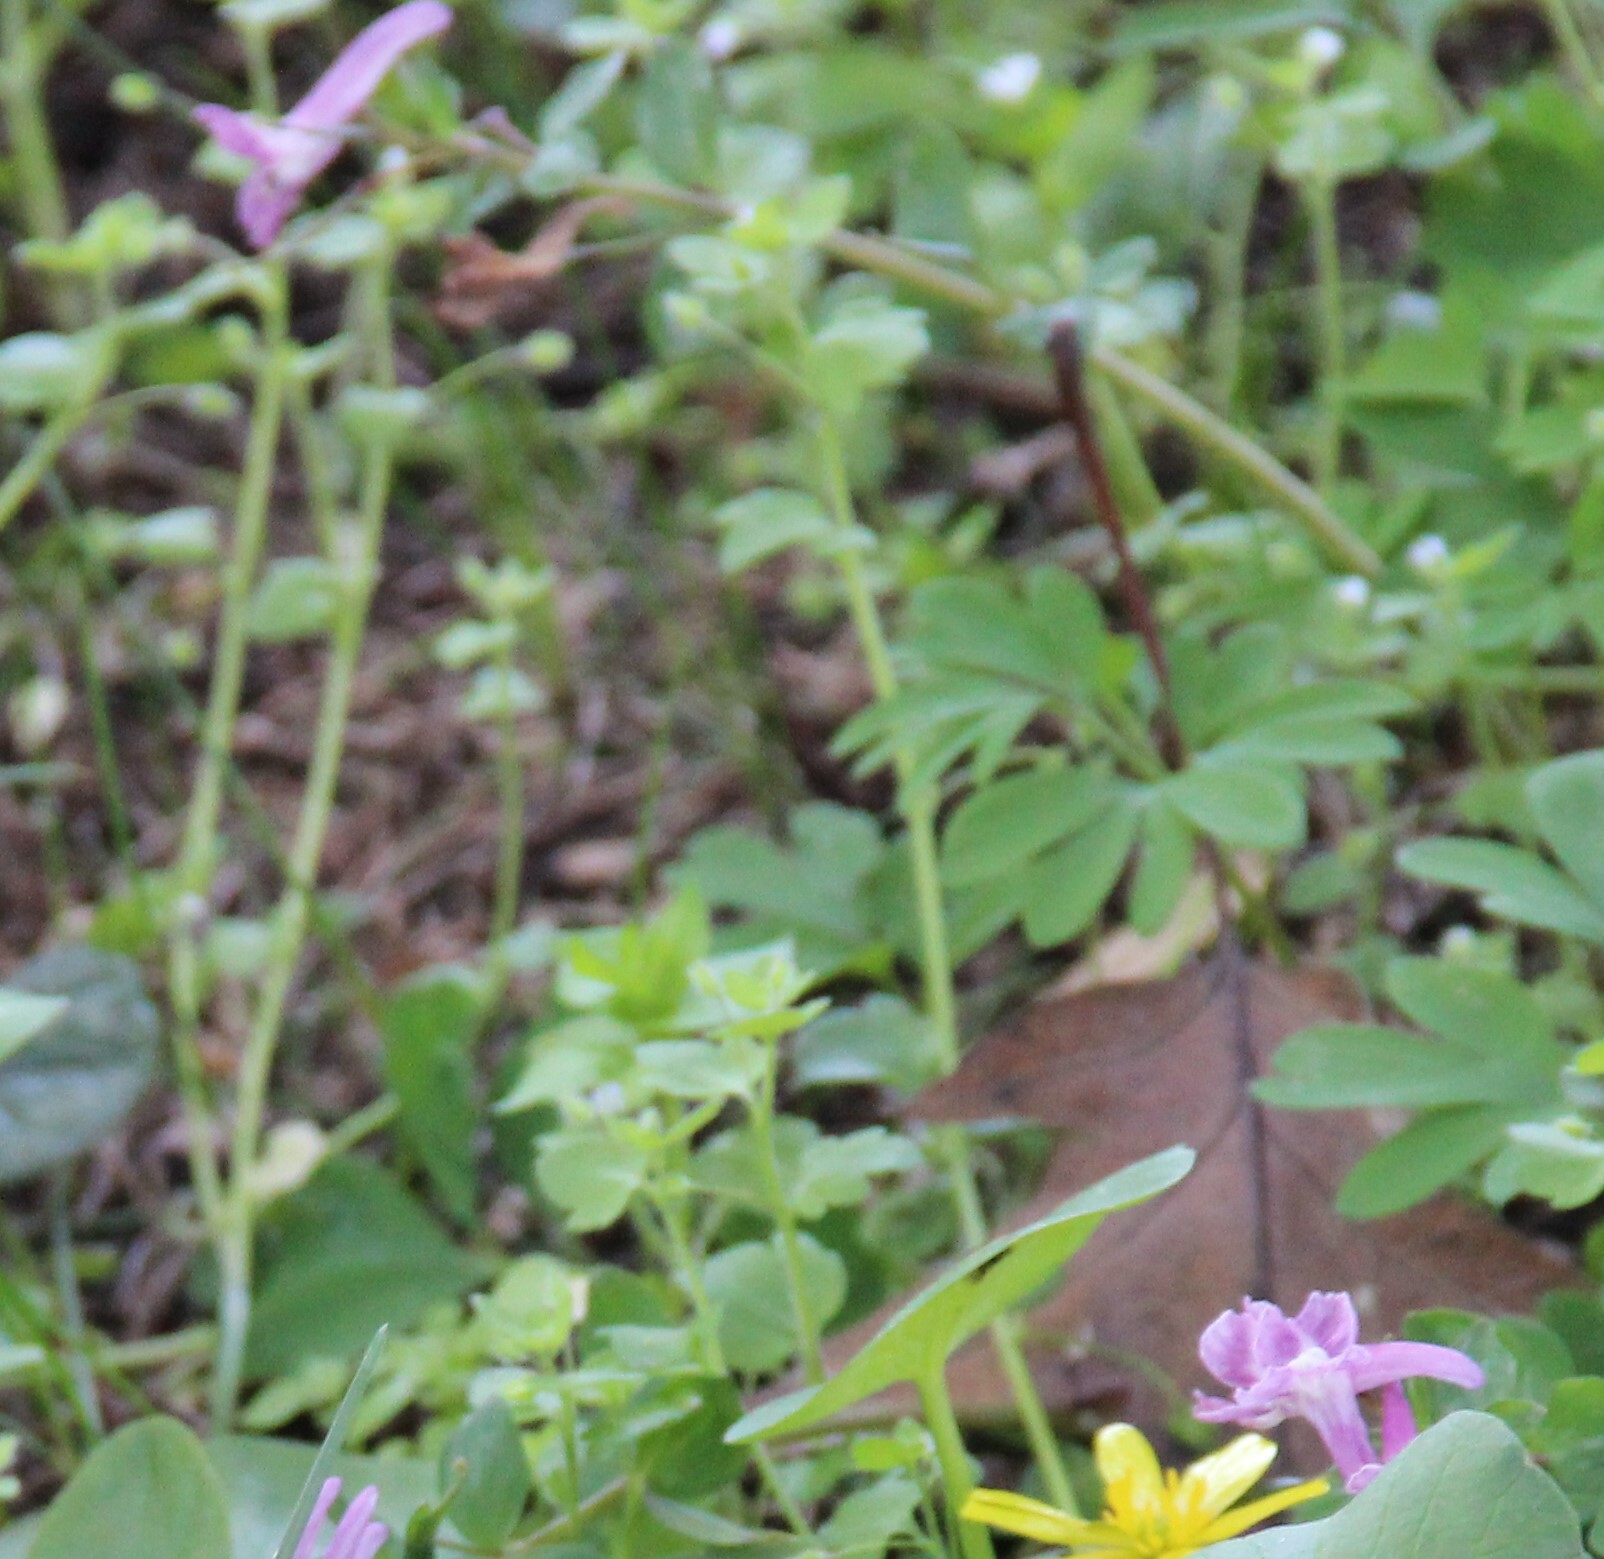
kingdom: Plantae
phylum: Tracheophyta
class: Magnoliopsida
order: Ranunculales
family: Papaveraceae
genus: Corydalis
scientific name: Corydalis caucasica
